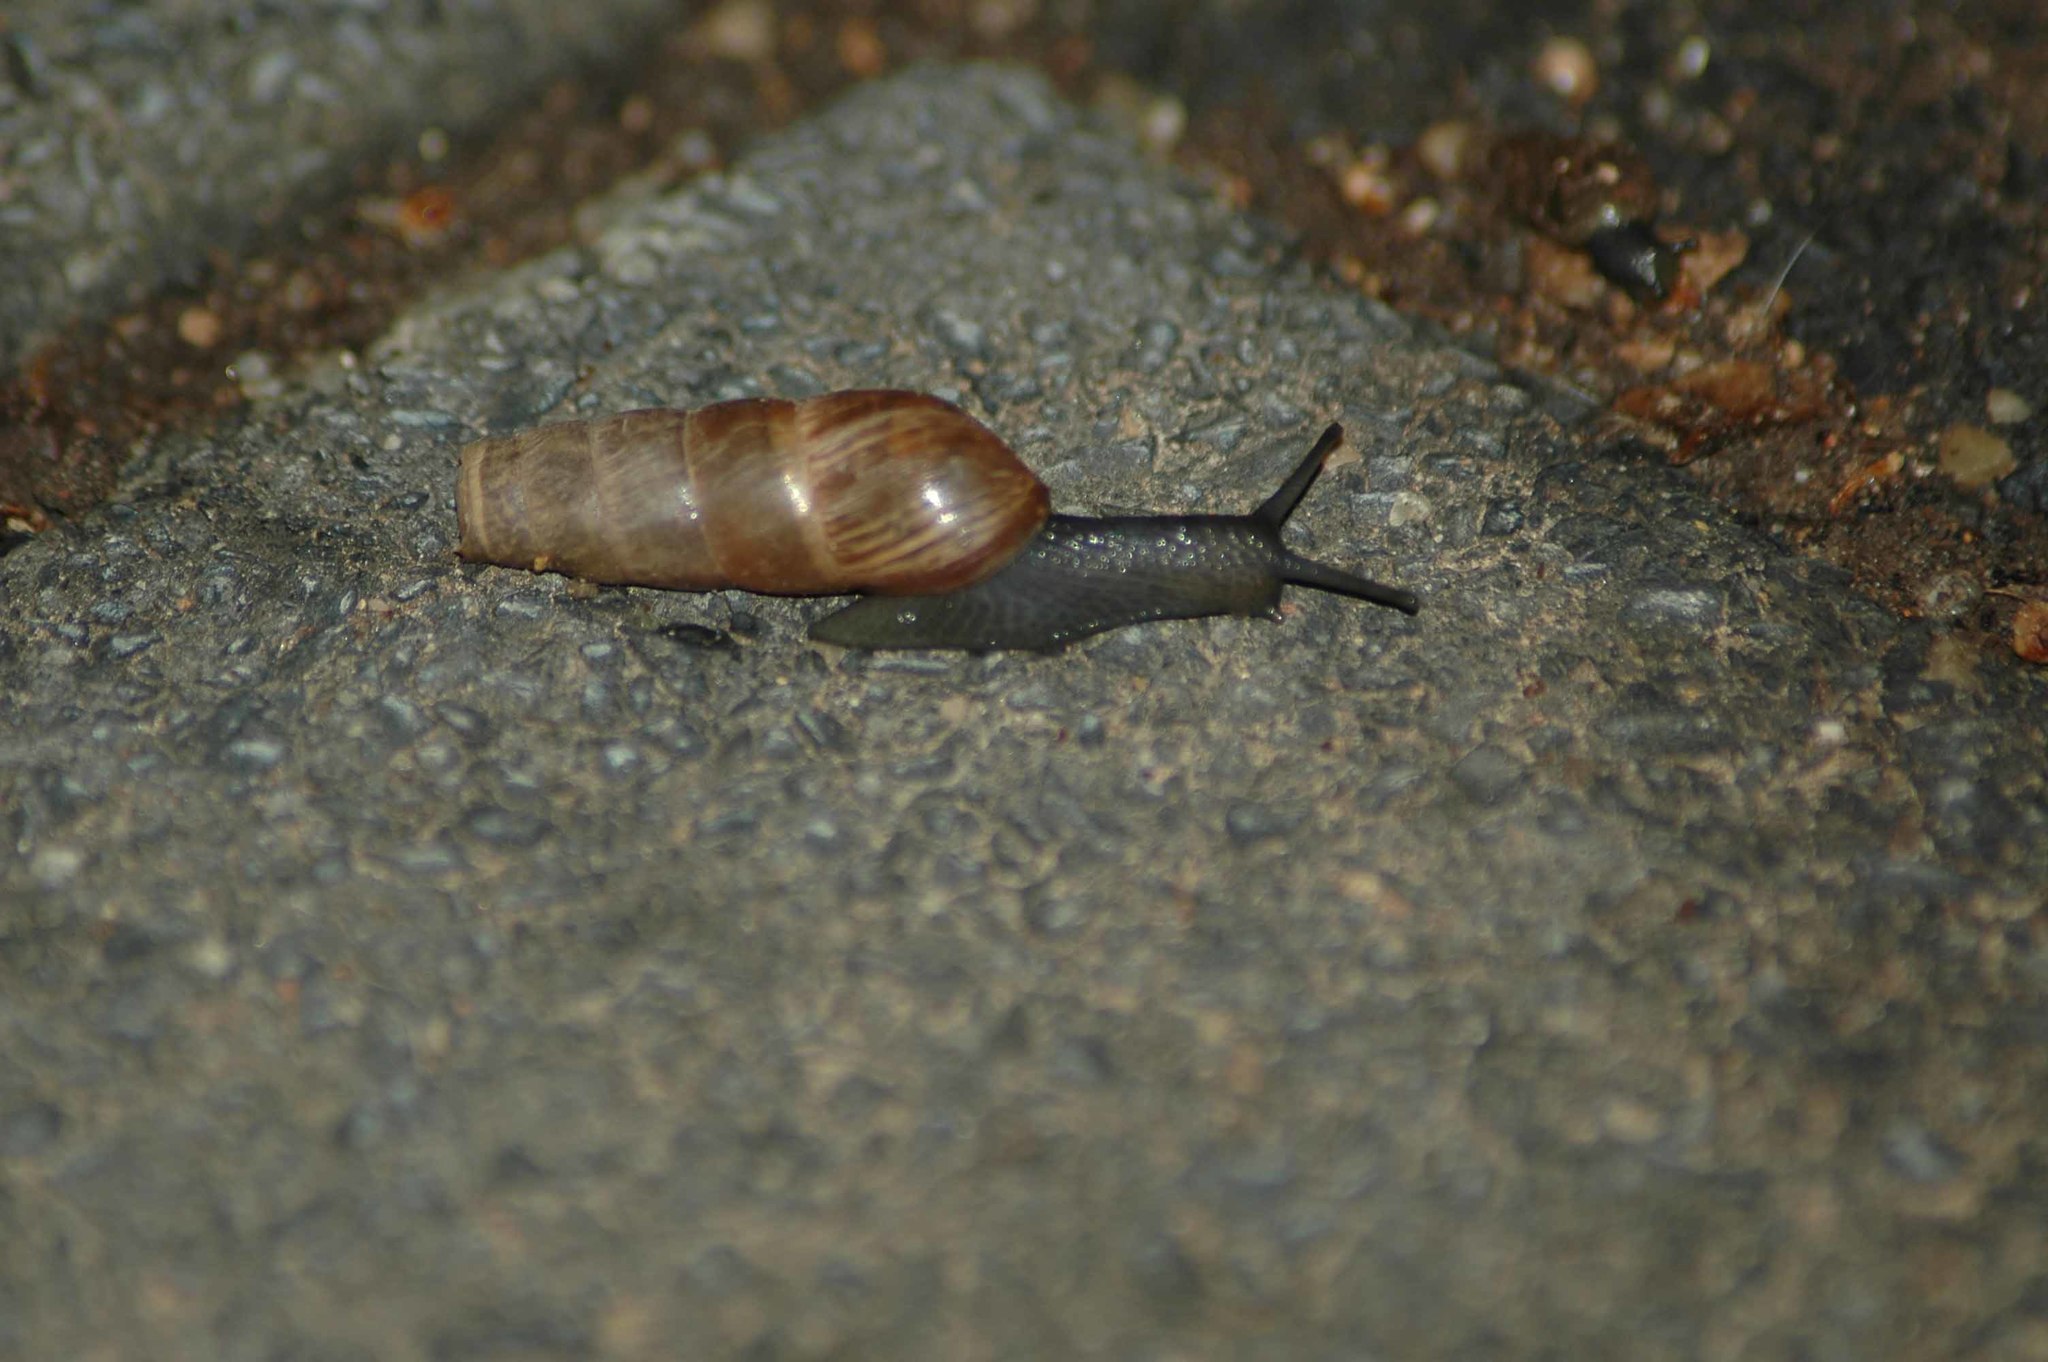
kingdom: Animalia
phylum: Mollusca
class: Gastropoda
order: Stylommatophora
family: Achatinidae
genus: Rumina
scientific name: Rumina decollata
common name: Decollate snail
